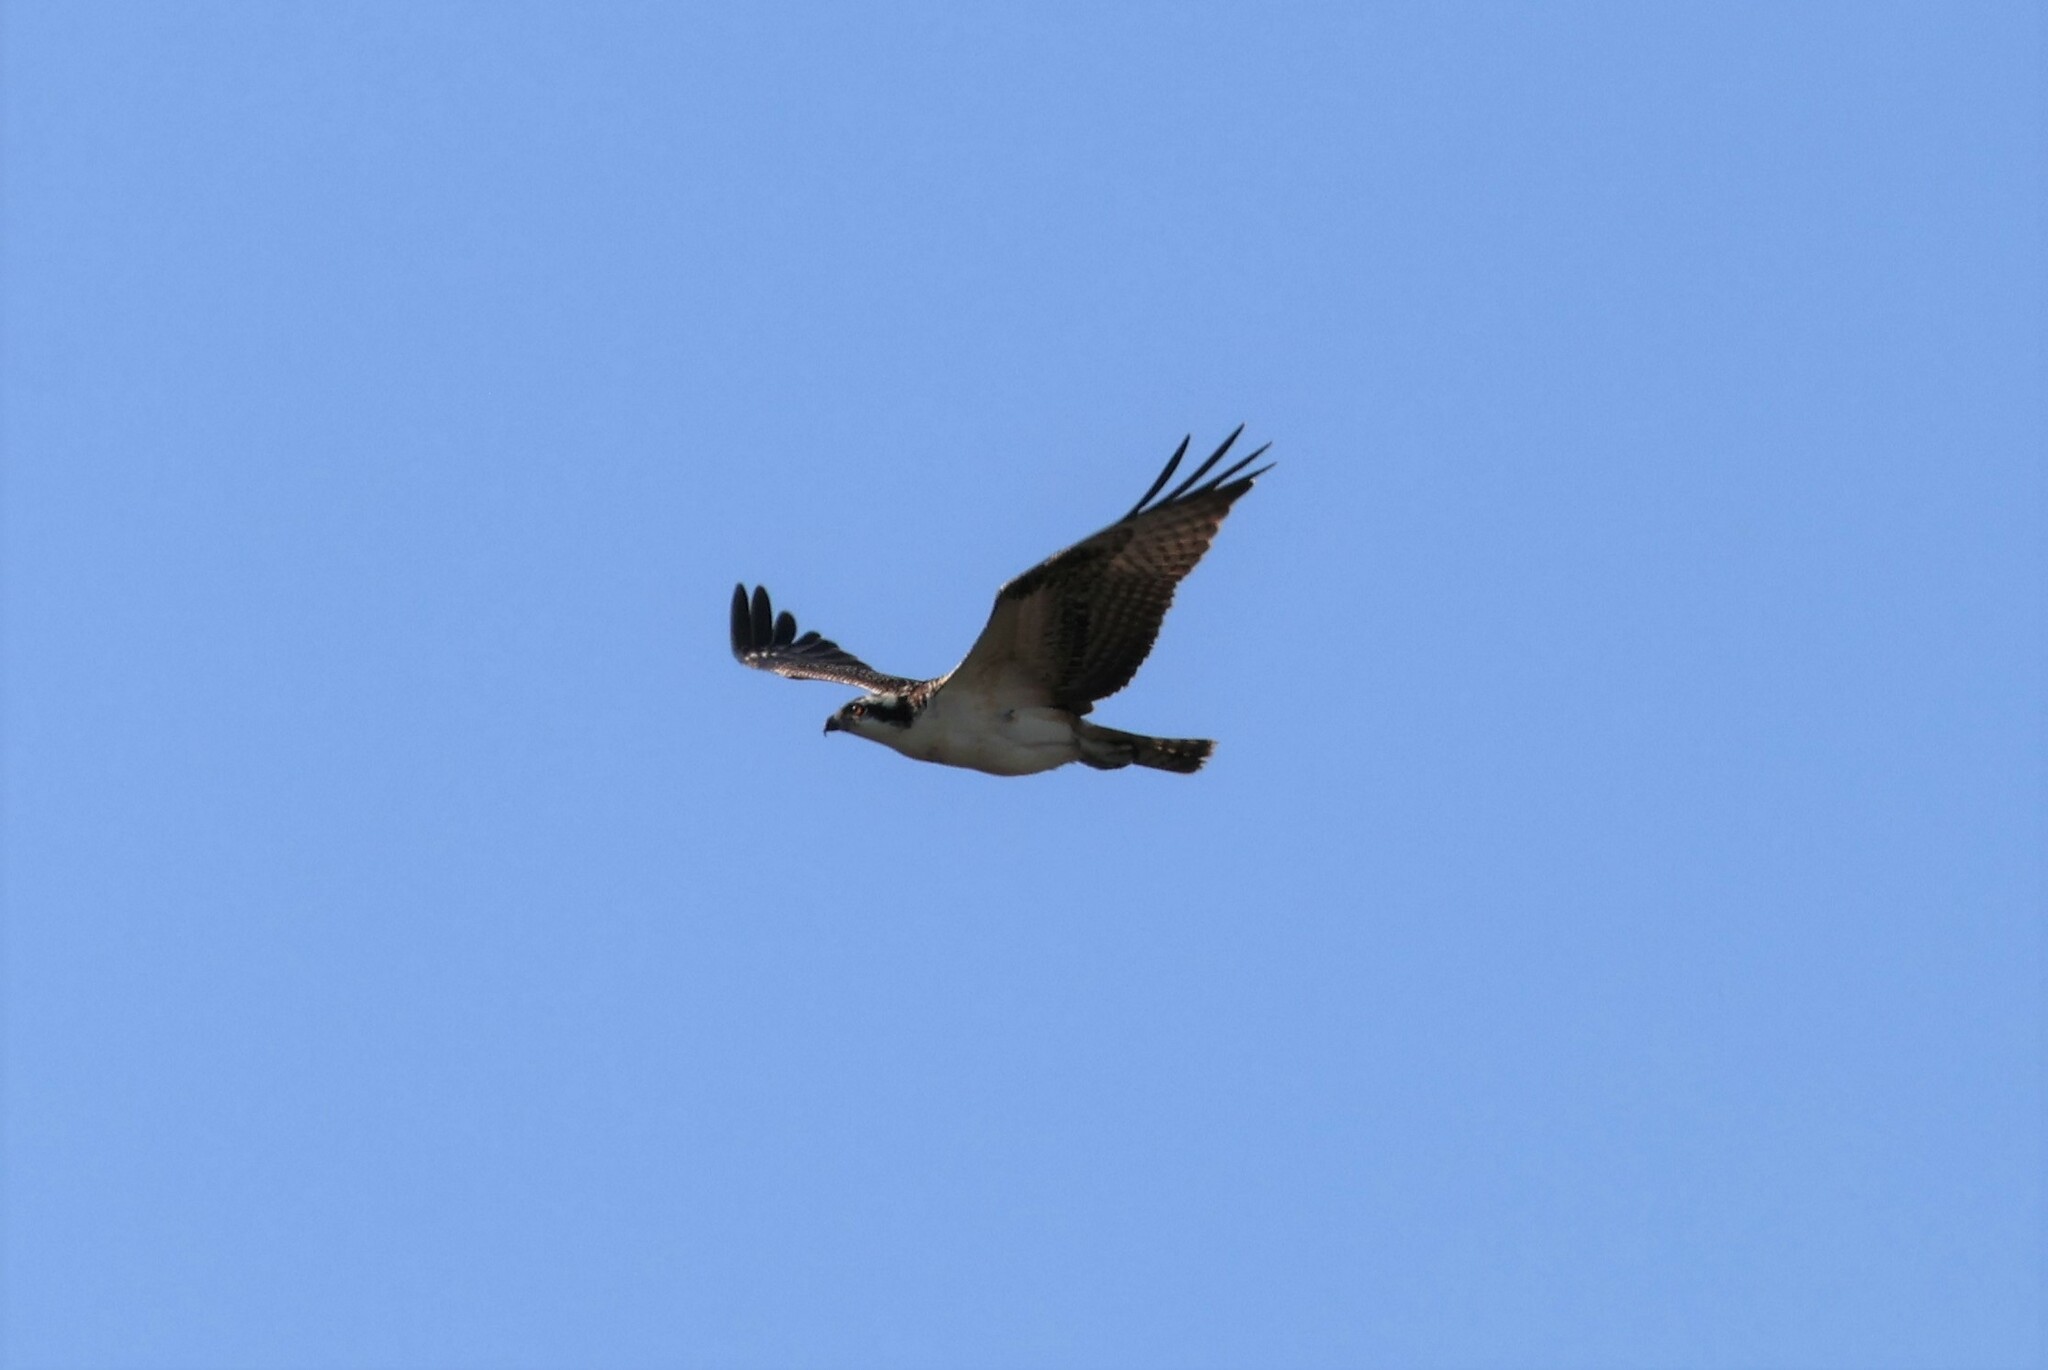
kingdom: Animalia
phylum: Chordata
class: Aves
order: Accipitriformes
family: Pandionidae
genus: Pandion
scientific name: Pandion haliaetus
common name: Osprey
